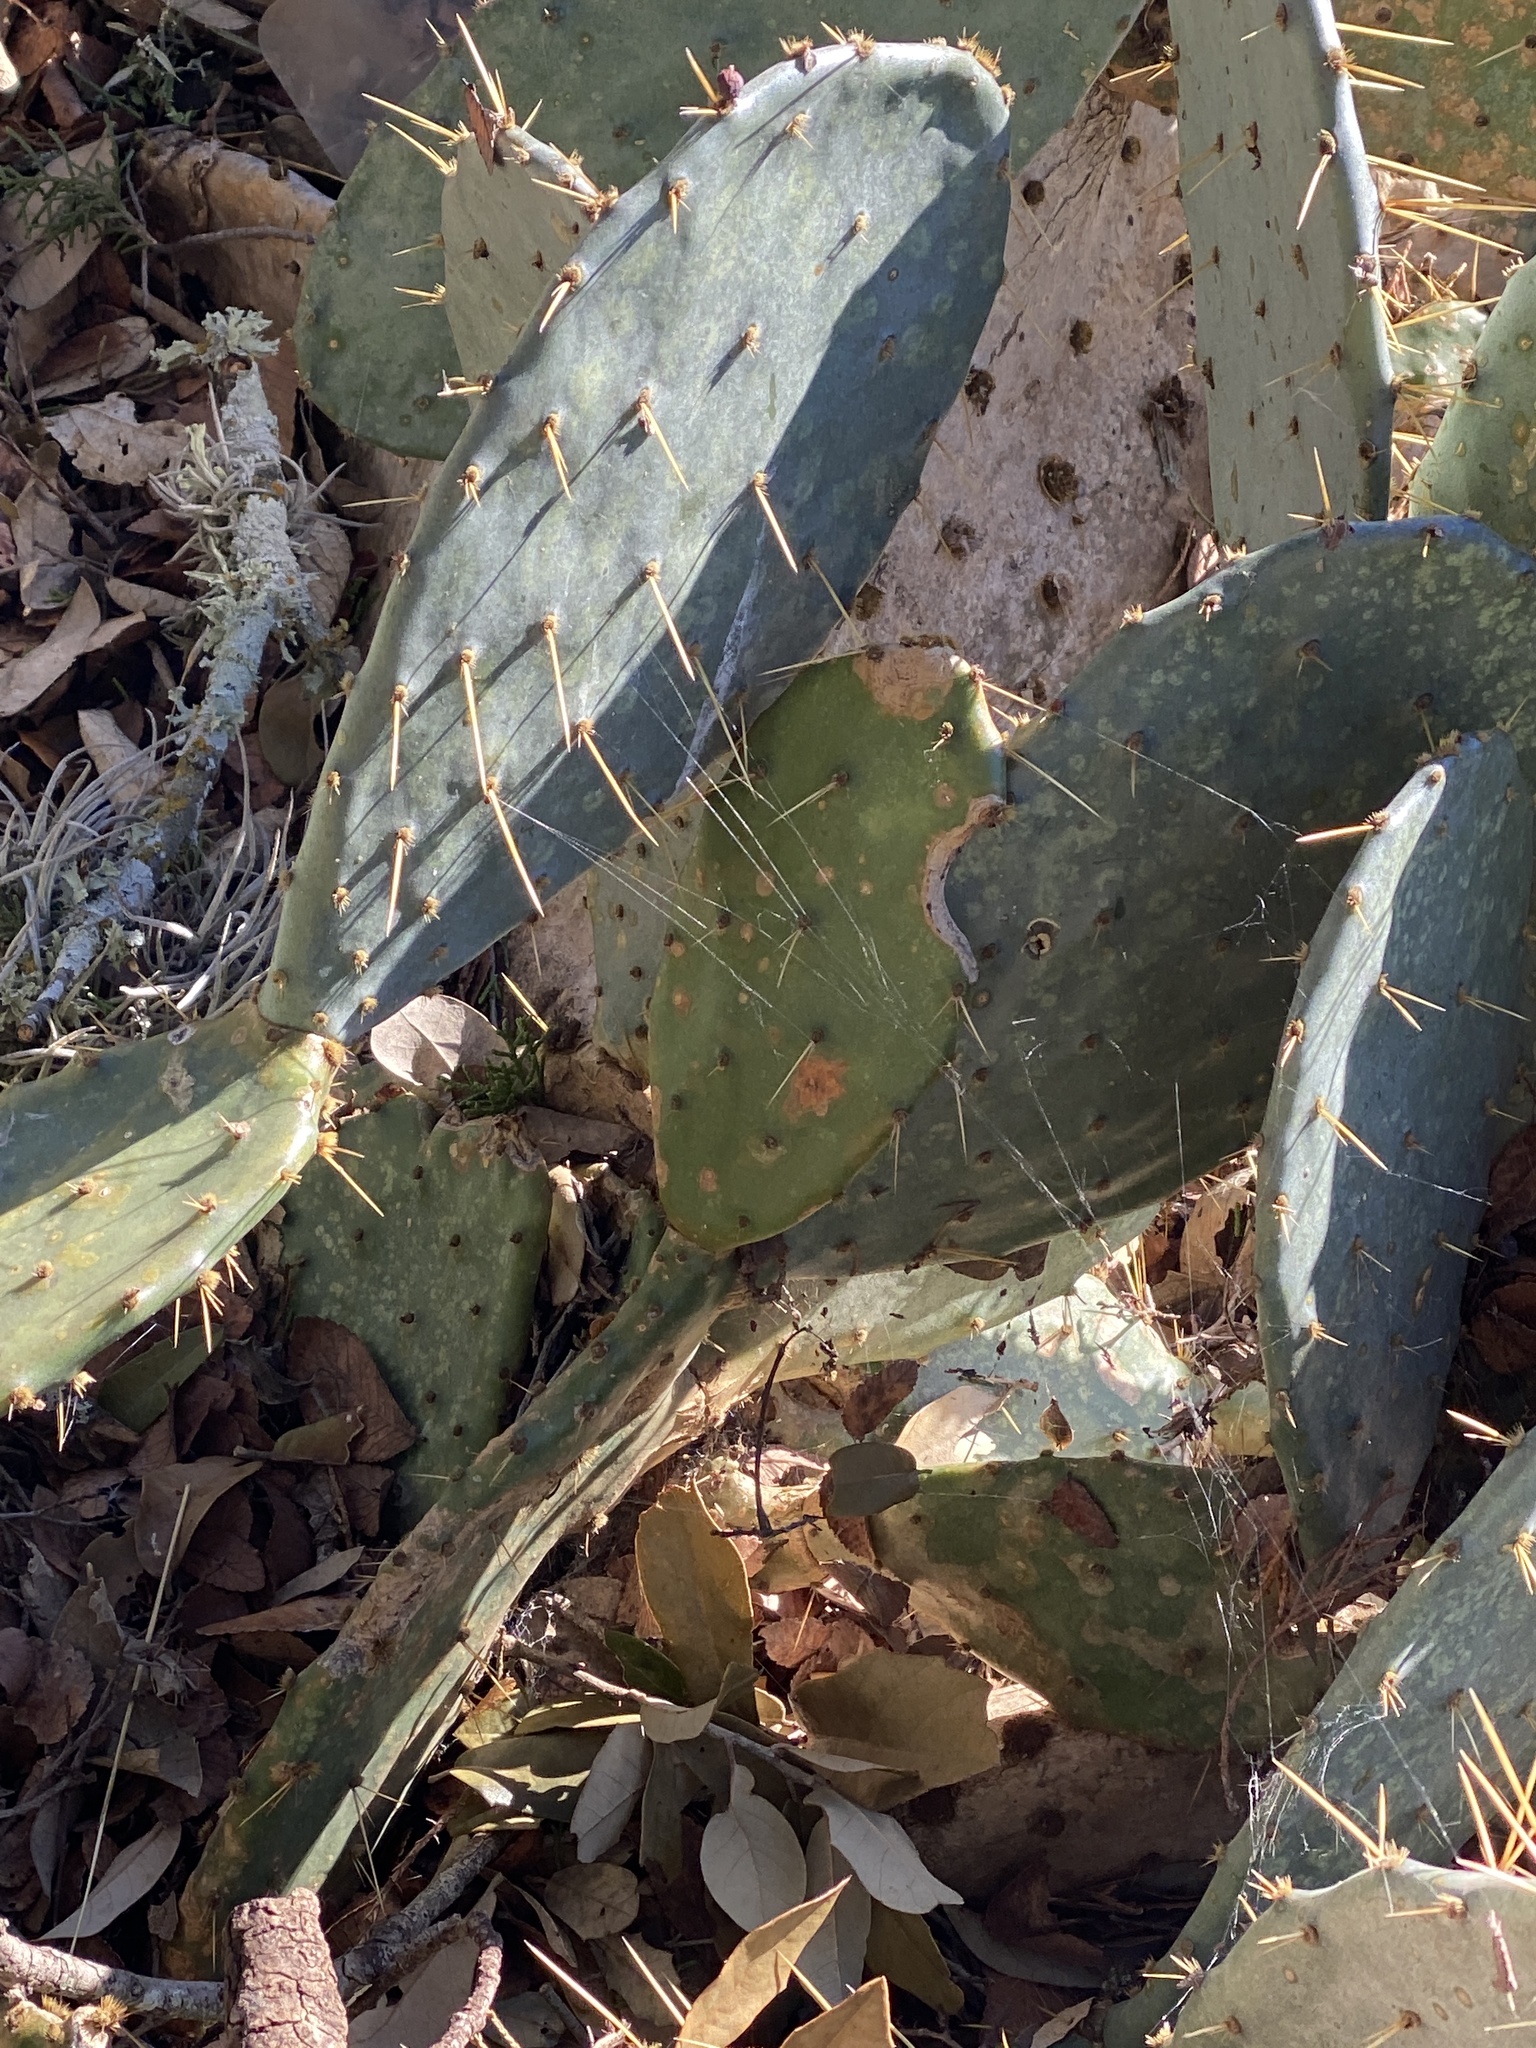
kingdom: Plantae
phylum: Tracheophyta
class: Magnoliopsida
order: Caryophyllales
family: Cactaceae
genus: Opuntia
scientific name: Opuntia engelmannii
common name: Cactus-apple
